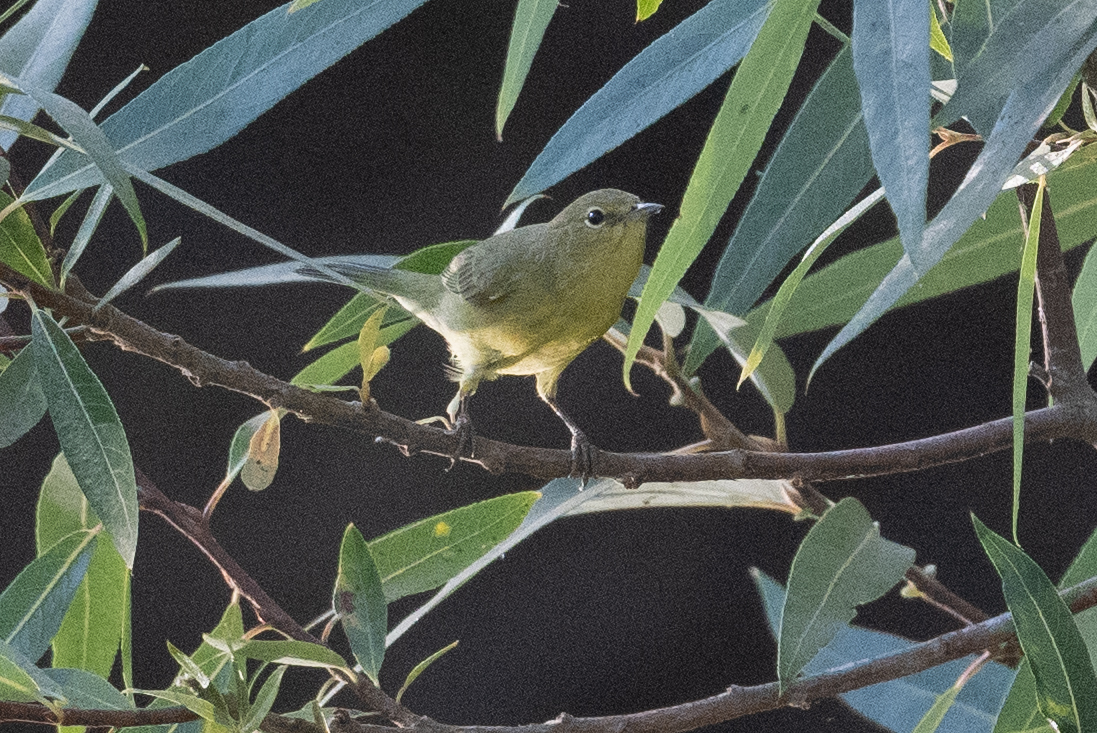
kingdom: Animalia
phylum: Chordata
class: Aves
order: Passeriformes
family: Parulidae
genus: Leiothlypis
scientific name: Leiothlypis celata
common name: Orange-crowned warbler
